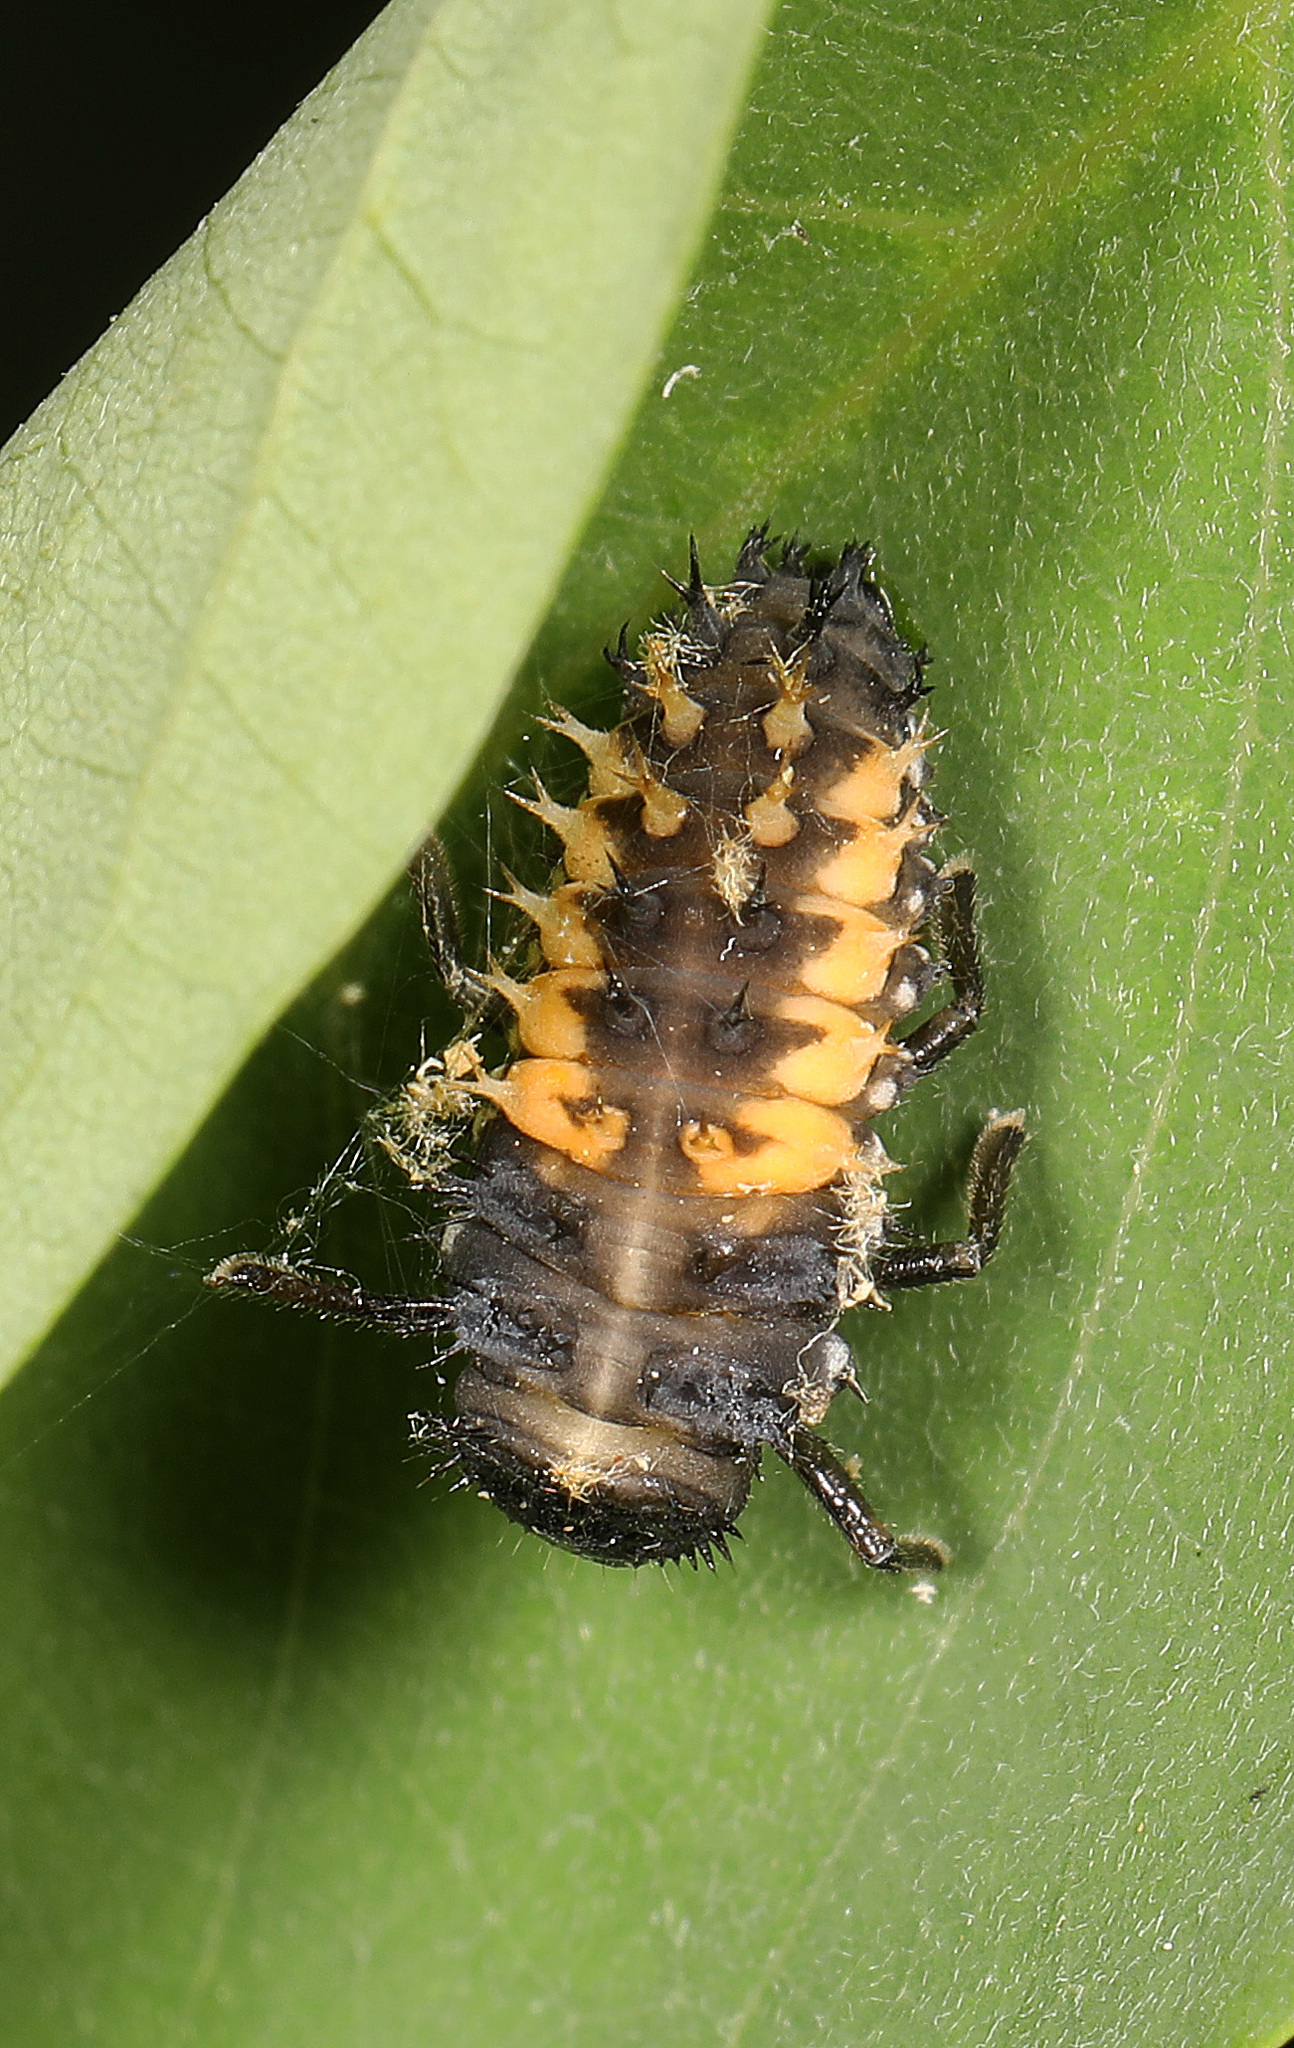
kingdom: Animalia
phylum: Arthropoda
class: Insecta
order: Coleoptera
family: Coccinellidae
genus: Harmonia
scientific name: Harmonia axyridis
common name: Harlequin ladybird
